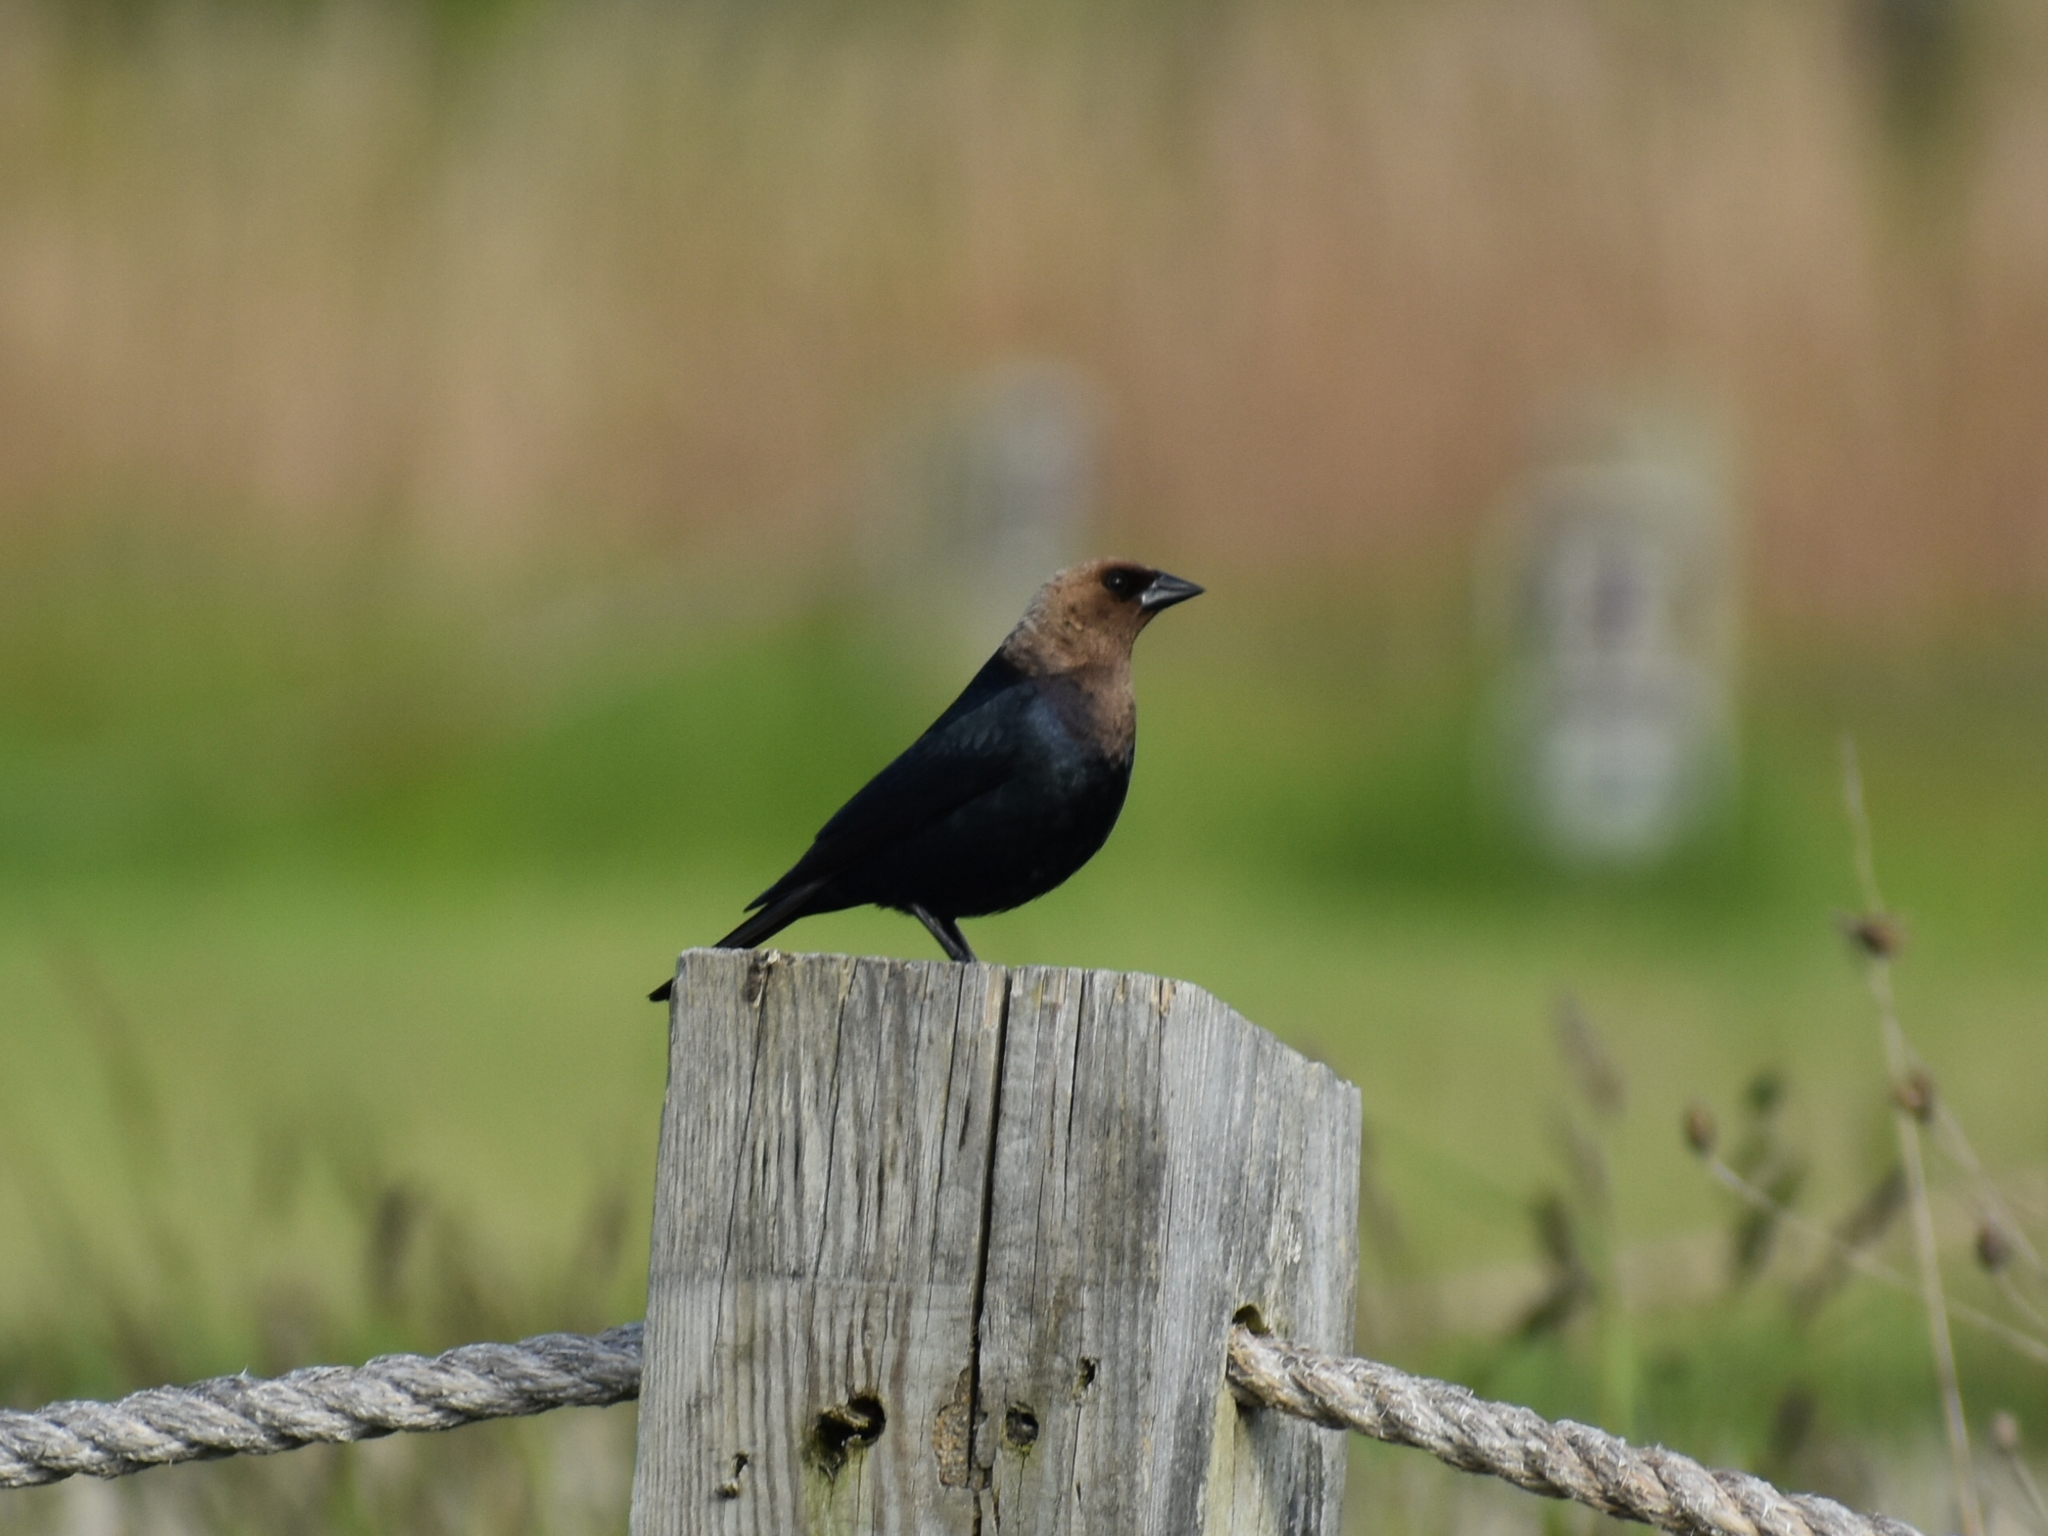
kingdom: Animalia
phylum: Chordata
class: Aves
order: Passeriformes
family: Icteridae
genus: Molothrus
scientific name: Molothrus ater
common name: Brown-headed cowbird
